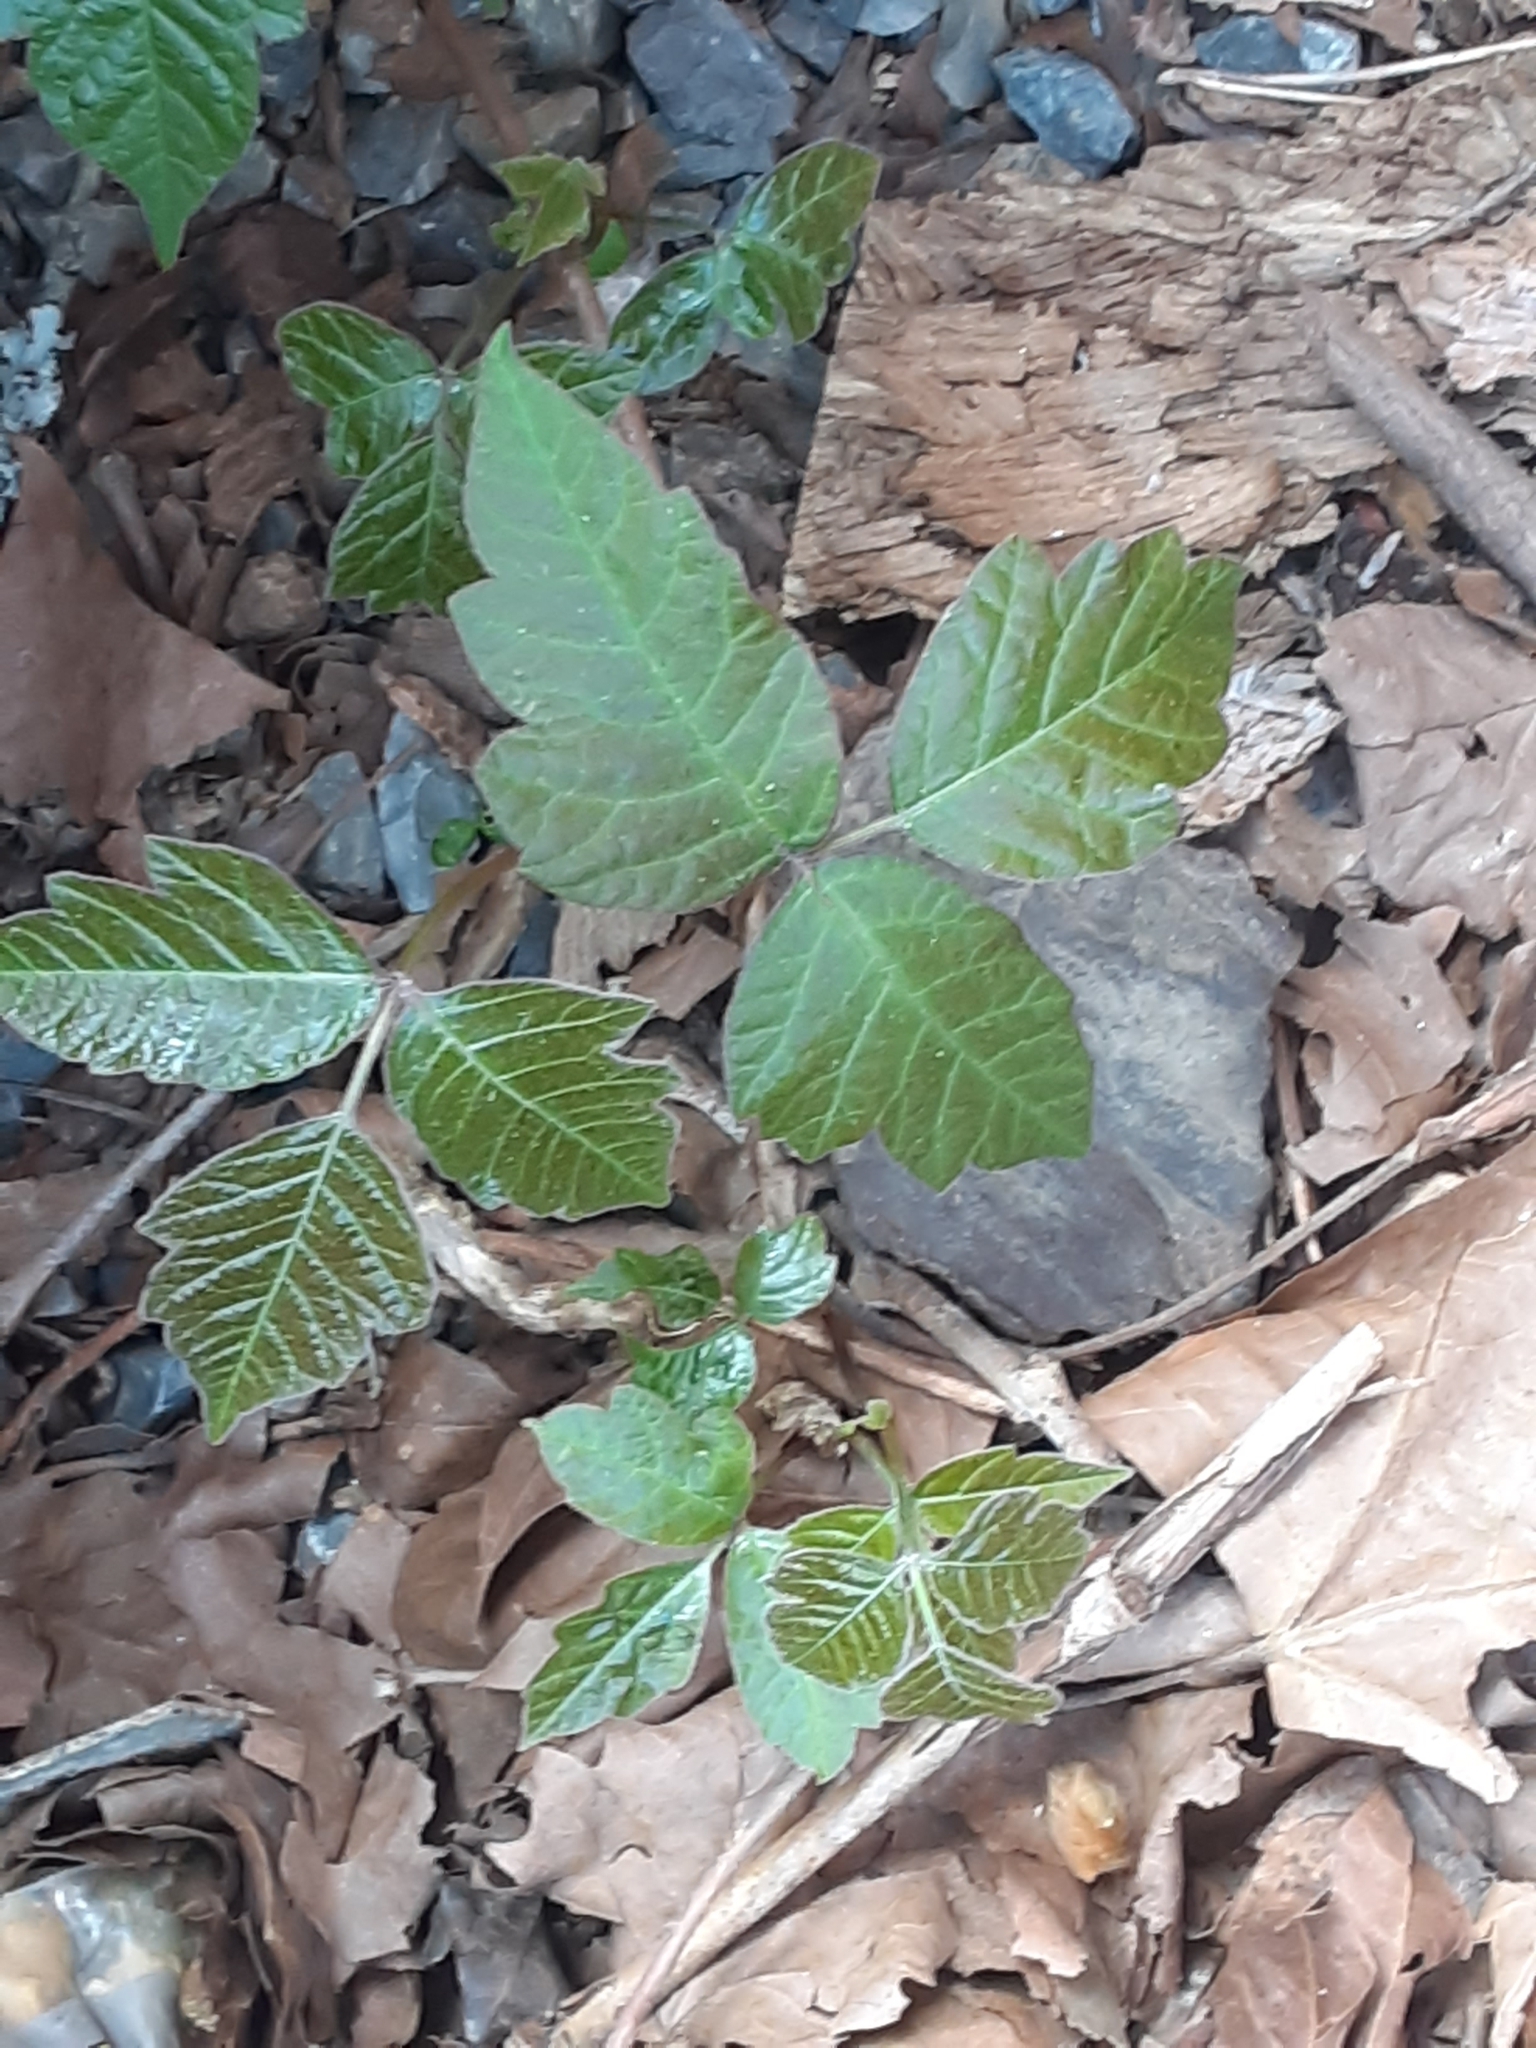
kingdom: Plantae
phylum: Tracheophyta
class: Magnoliopsida
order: Sapindales
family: Anacardiaceae
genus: Toxicodendron
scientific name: Toxicodendron radicans
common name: Poison ivy
